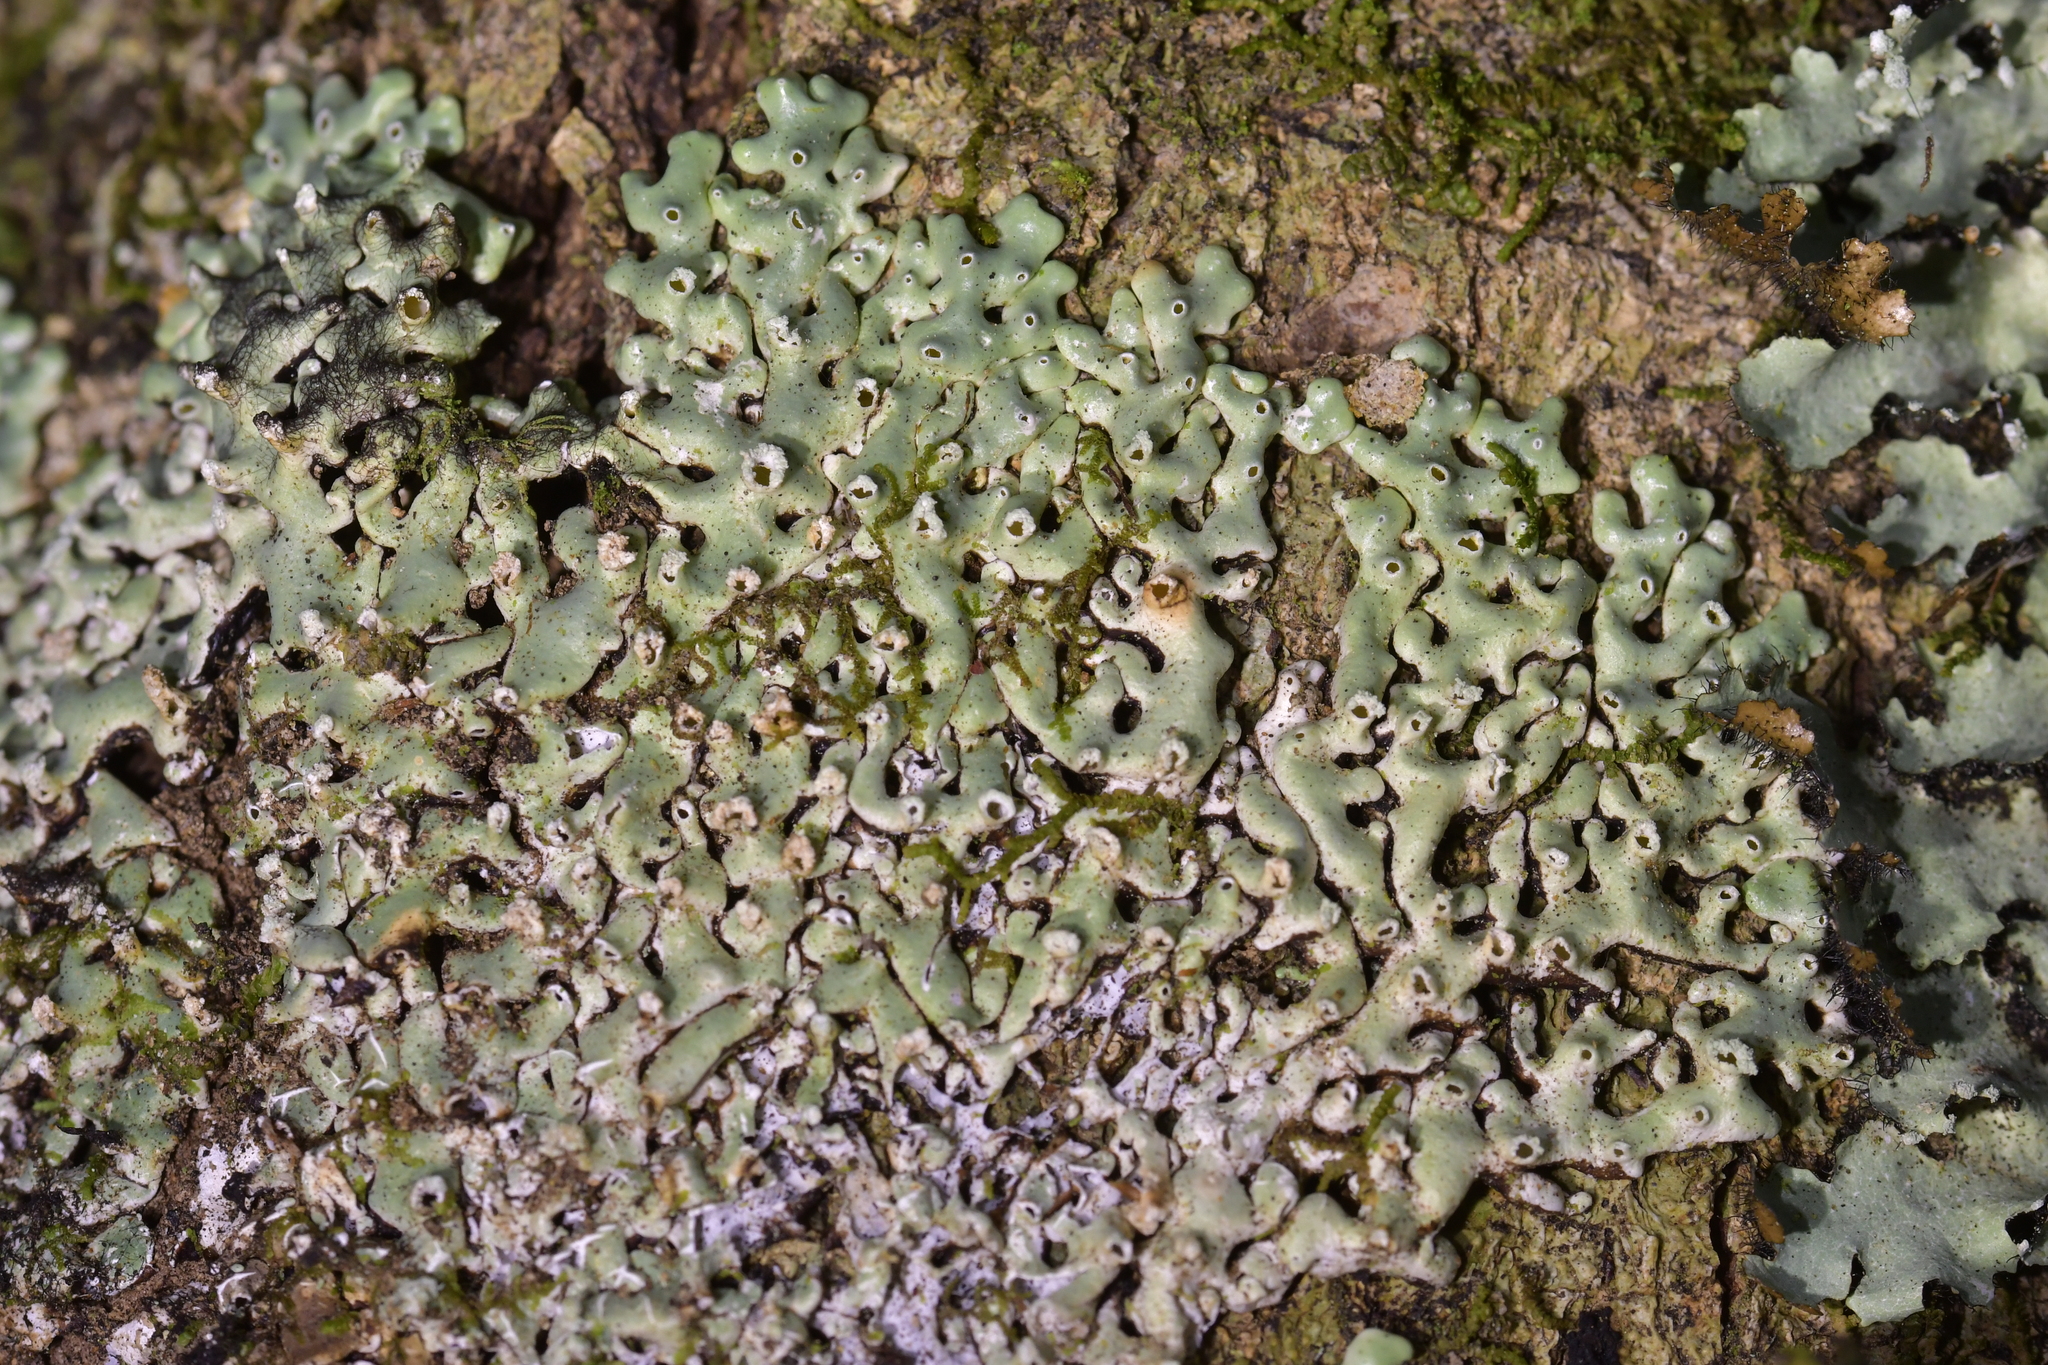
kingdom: Fungi
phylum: Ascomycota
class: Lecanoromycetes
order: Lecanorales
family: Parmeliaceae
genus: Menegazzia
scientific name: Menegazzia neozelandica
